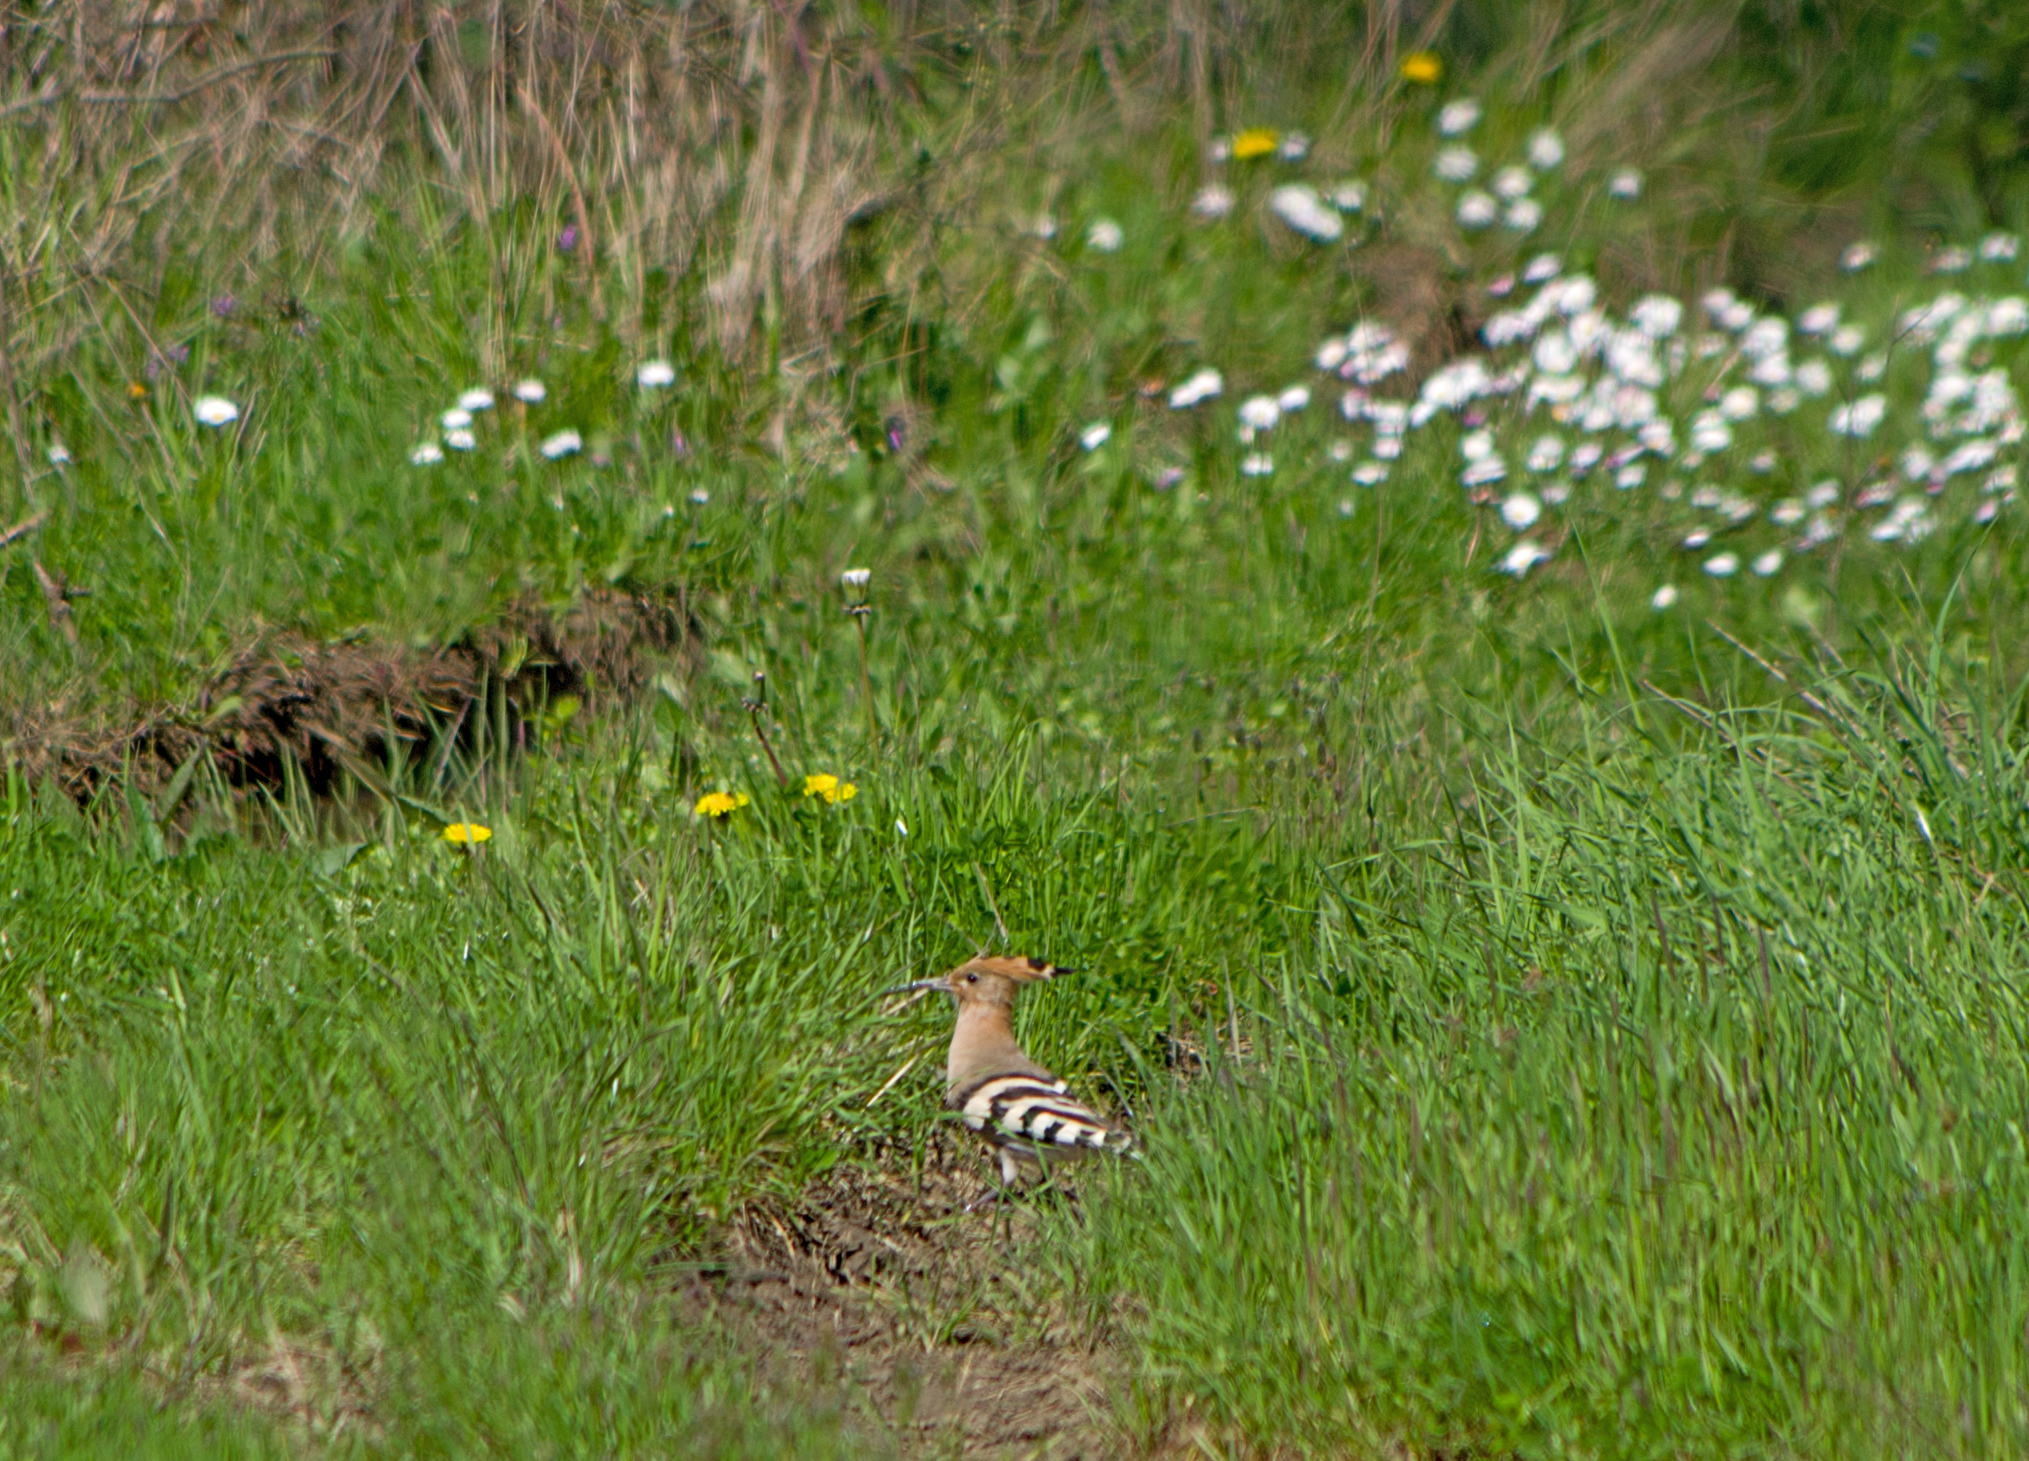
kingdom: Animalia
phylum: Chordata
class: Aves
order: Bucerotiformes
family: Upupidae
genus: Upupa
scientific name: Upupa epops
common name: Eurasian hoopoe
